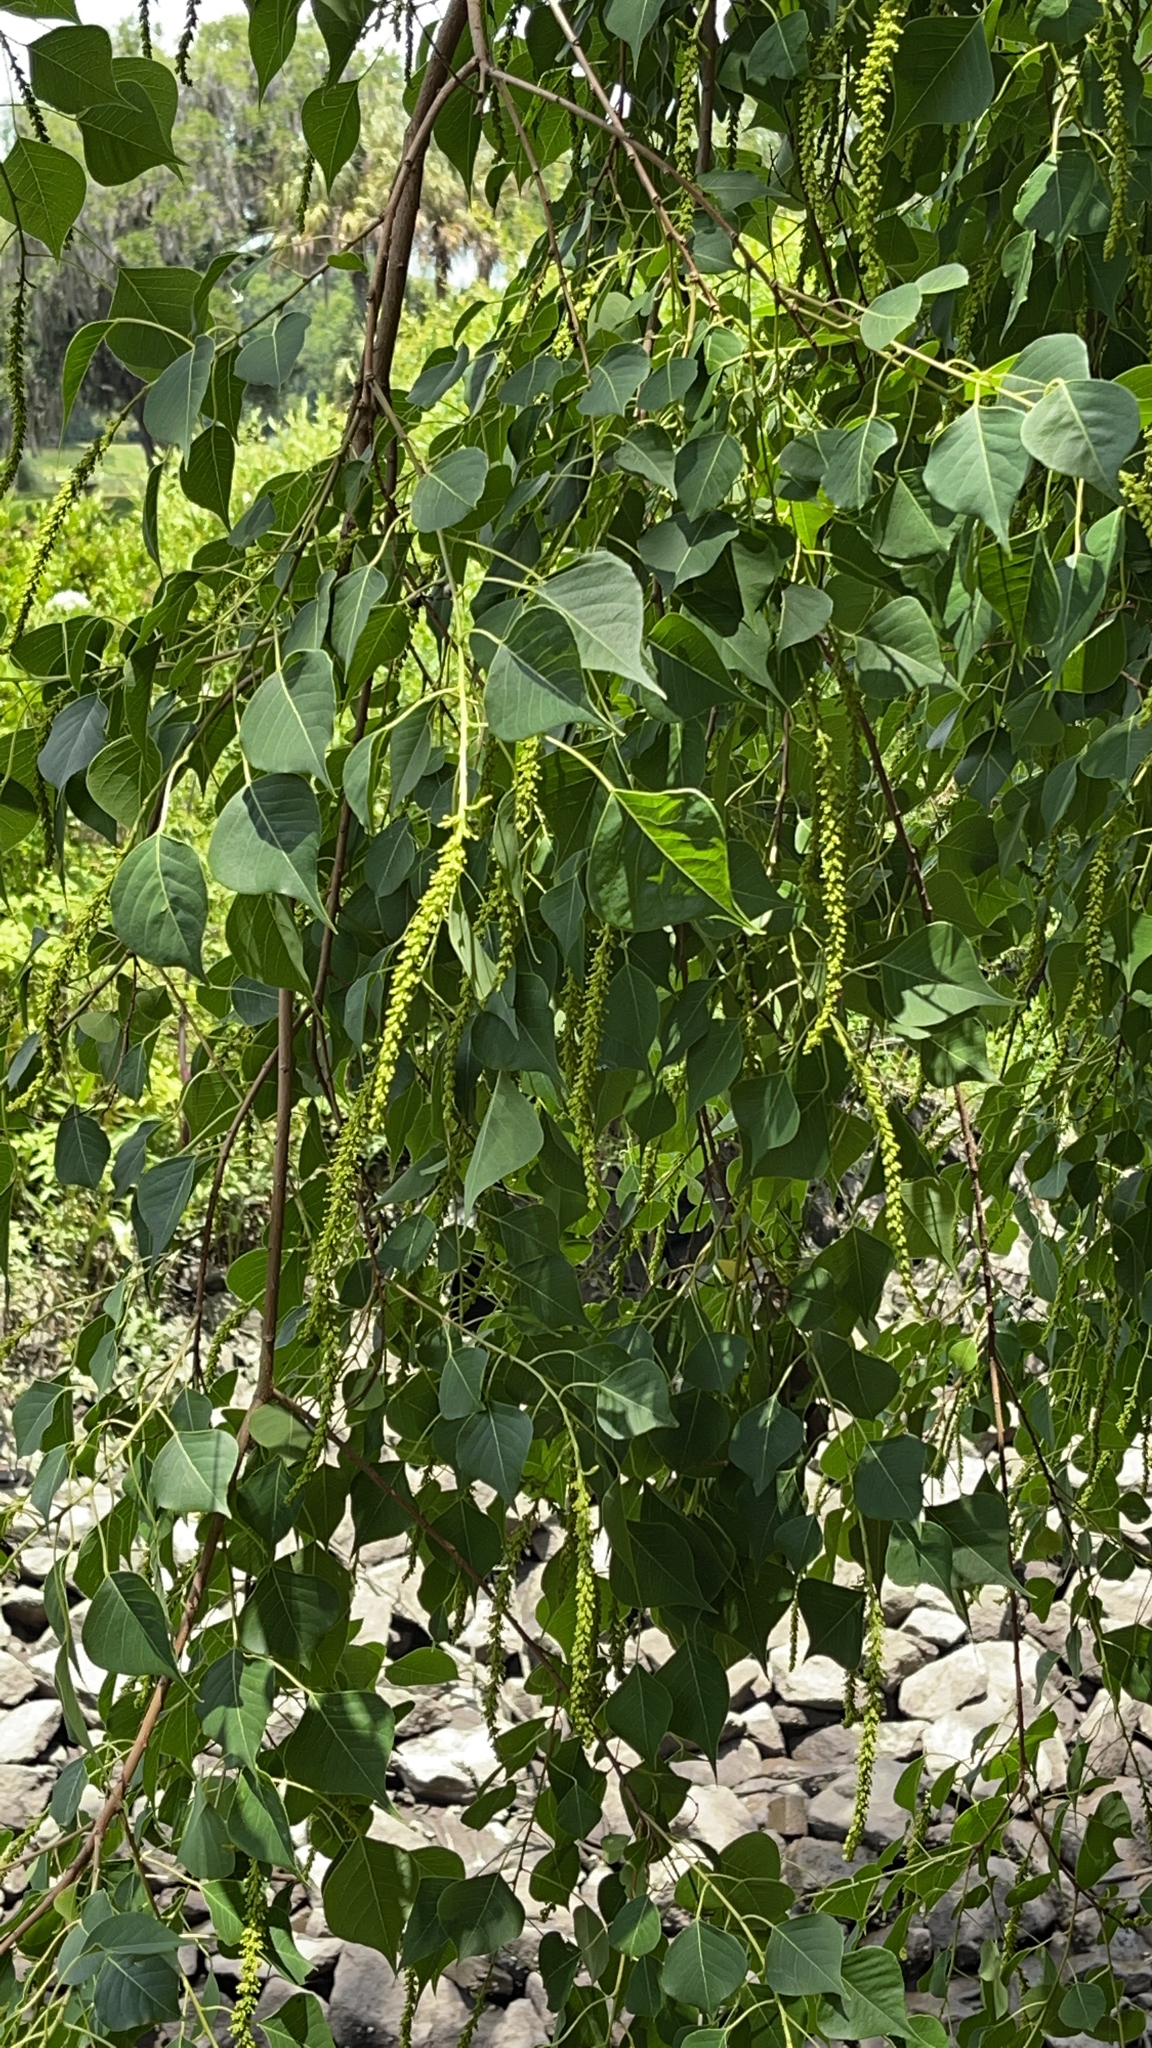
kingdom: Plantae
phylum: Tracheophyta
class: Magnoliopsida
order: Malpighiales
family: Euphorbiaceae
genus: Triadica
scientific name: Triadica sebifera
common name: Chinese tallow
